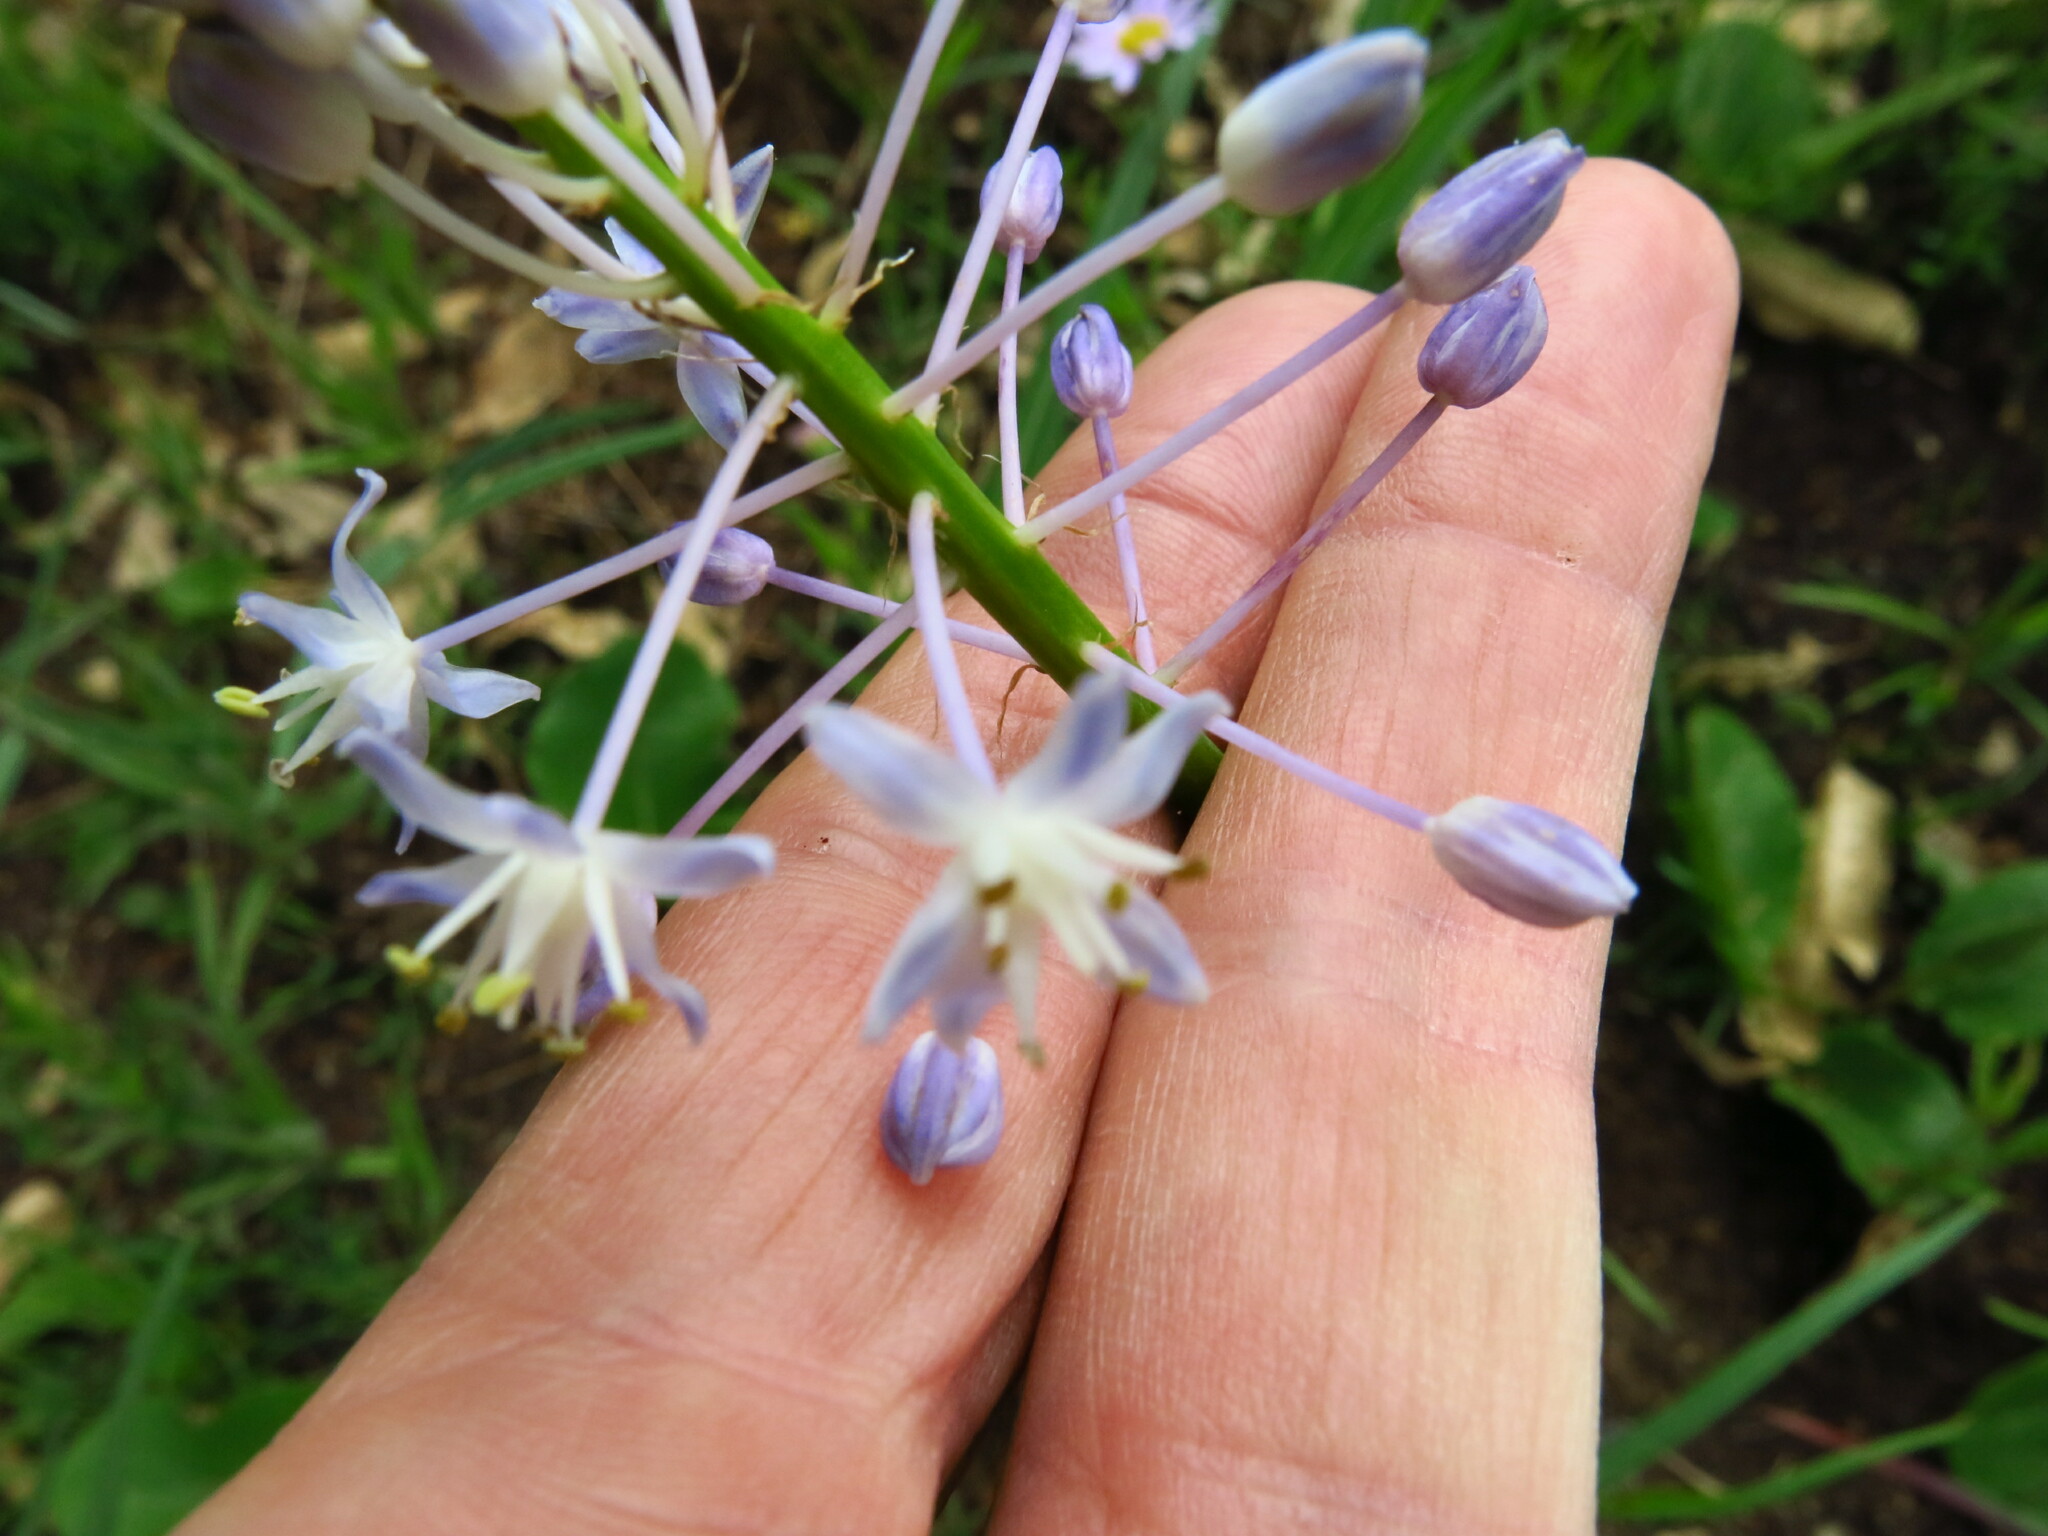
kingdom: Plantae
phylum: Tracheophyta
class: Liliopsida
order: Asparagales
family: Asparagaceae
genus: Merwilla
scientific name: Merwilla plumbea
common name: Blue-squill
